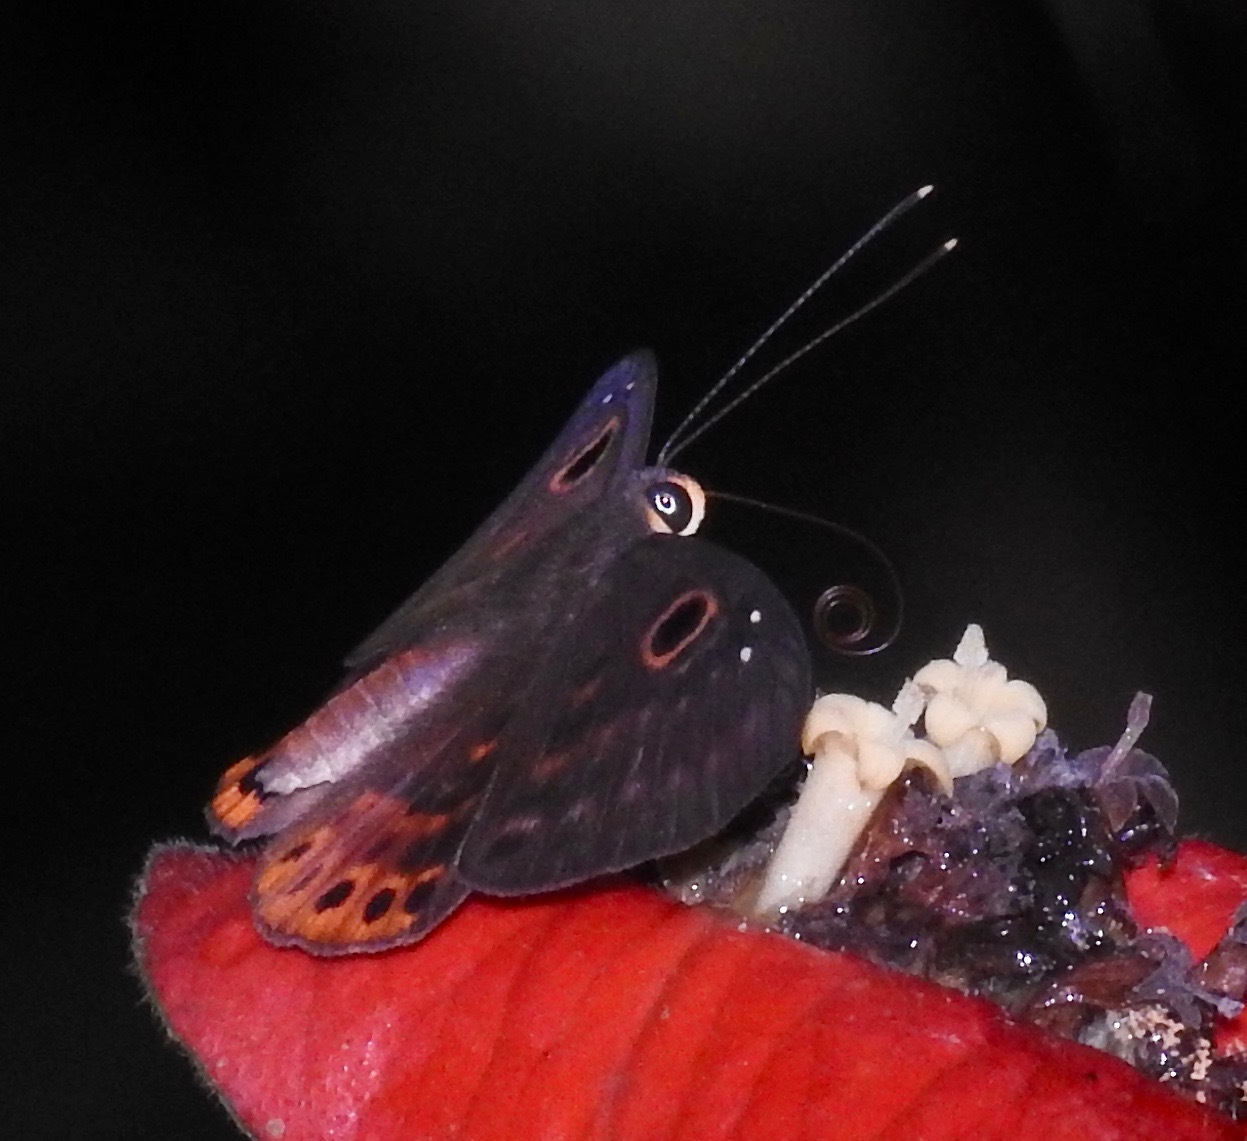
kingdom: Animalia
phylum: Cnidaria
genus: Eurybia
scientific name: Eurybia dardus
